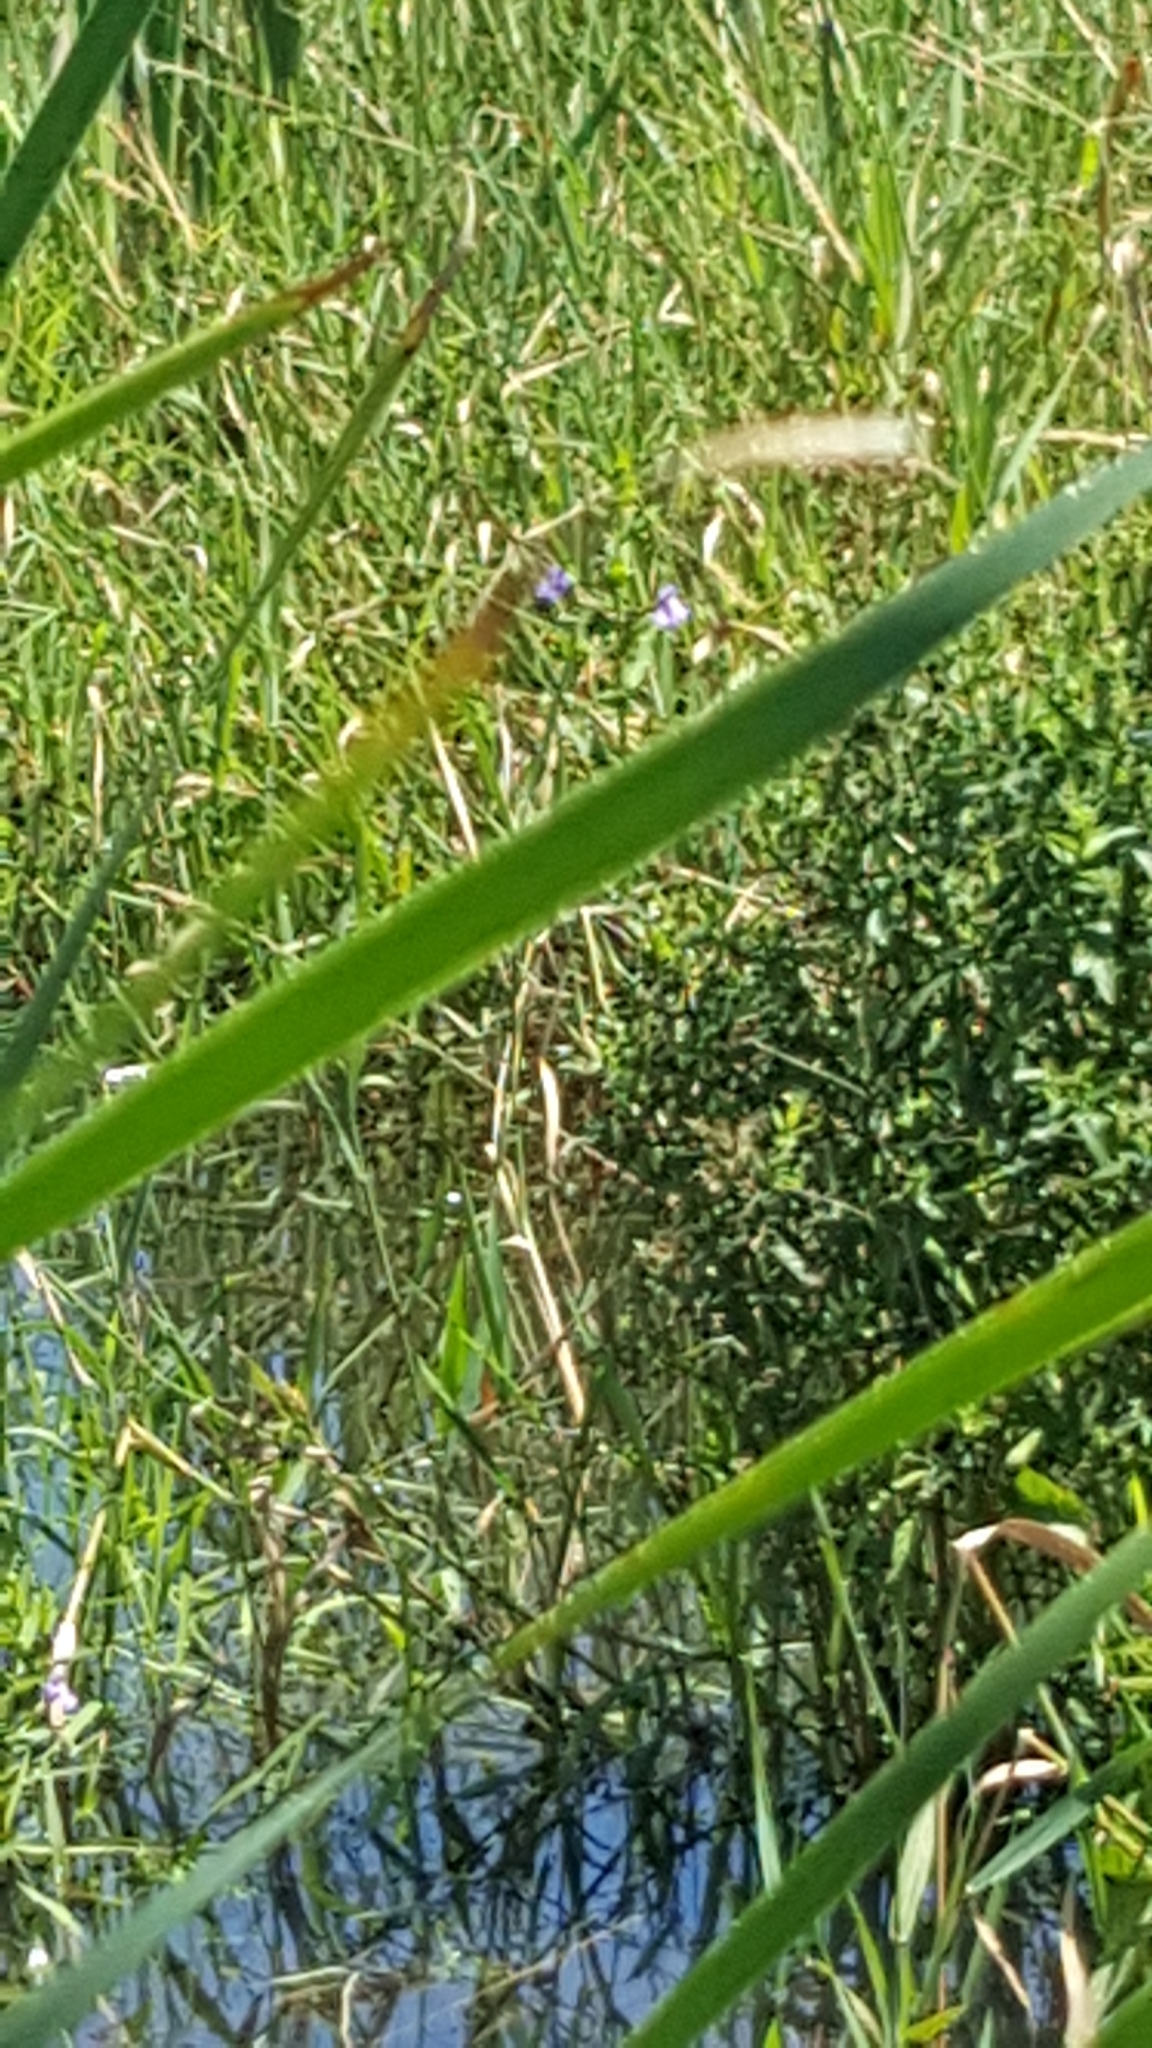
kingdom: Plantae
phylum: Tracheophyta
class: Magnoliopsida
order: Lamiales
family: Phrymaceae
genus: Mimulus
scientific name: Mimulus ringens
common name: Allegheny monkeyflower
